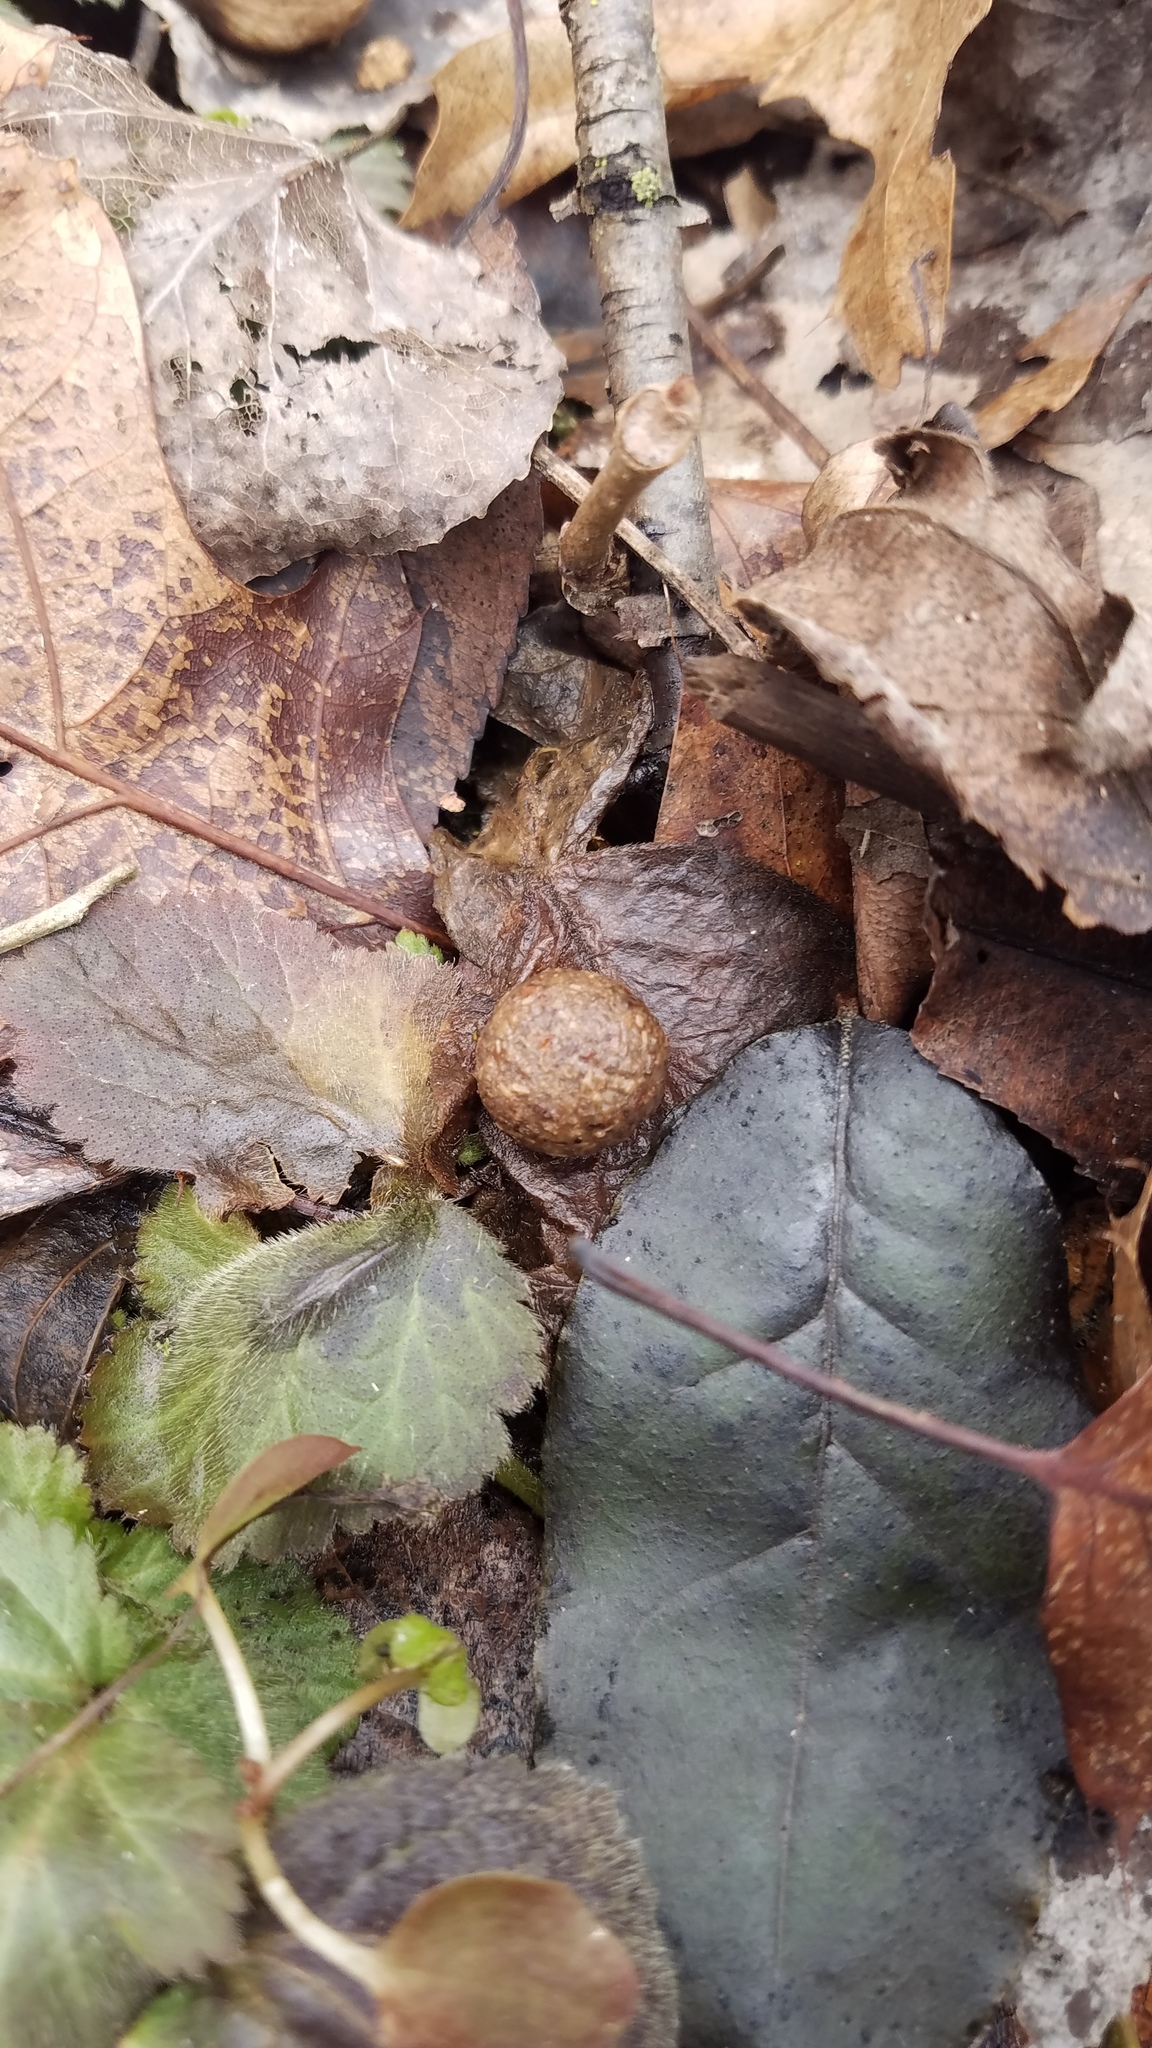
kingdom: Animalia
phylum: Chordata
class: Mammalia
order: Lagomorpha
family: Leporidae
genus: Sylvilagus
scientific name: Sylvilagus floridanus
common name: Eastern cottontail
